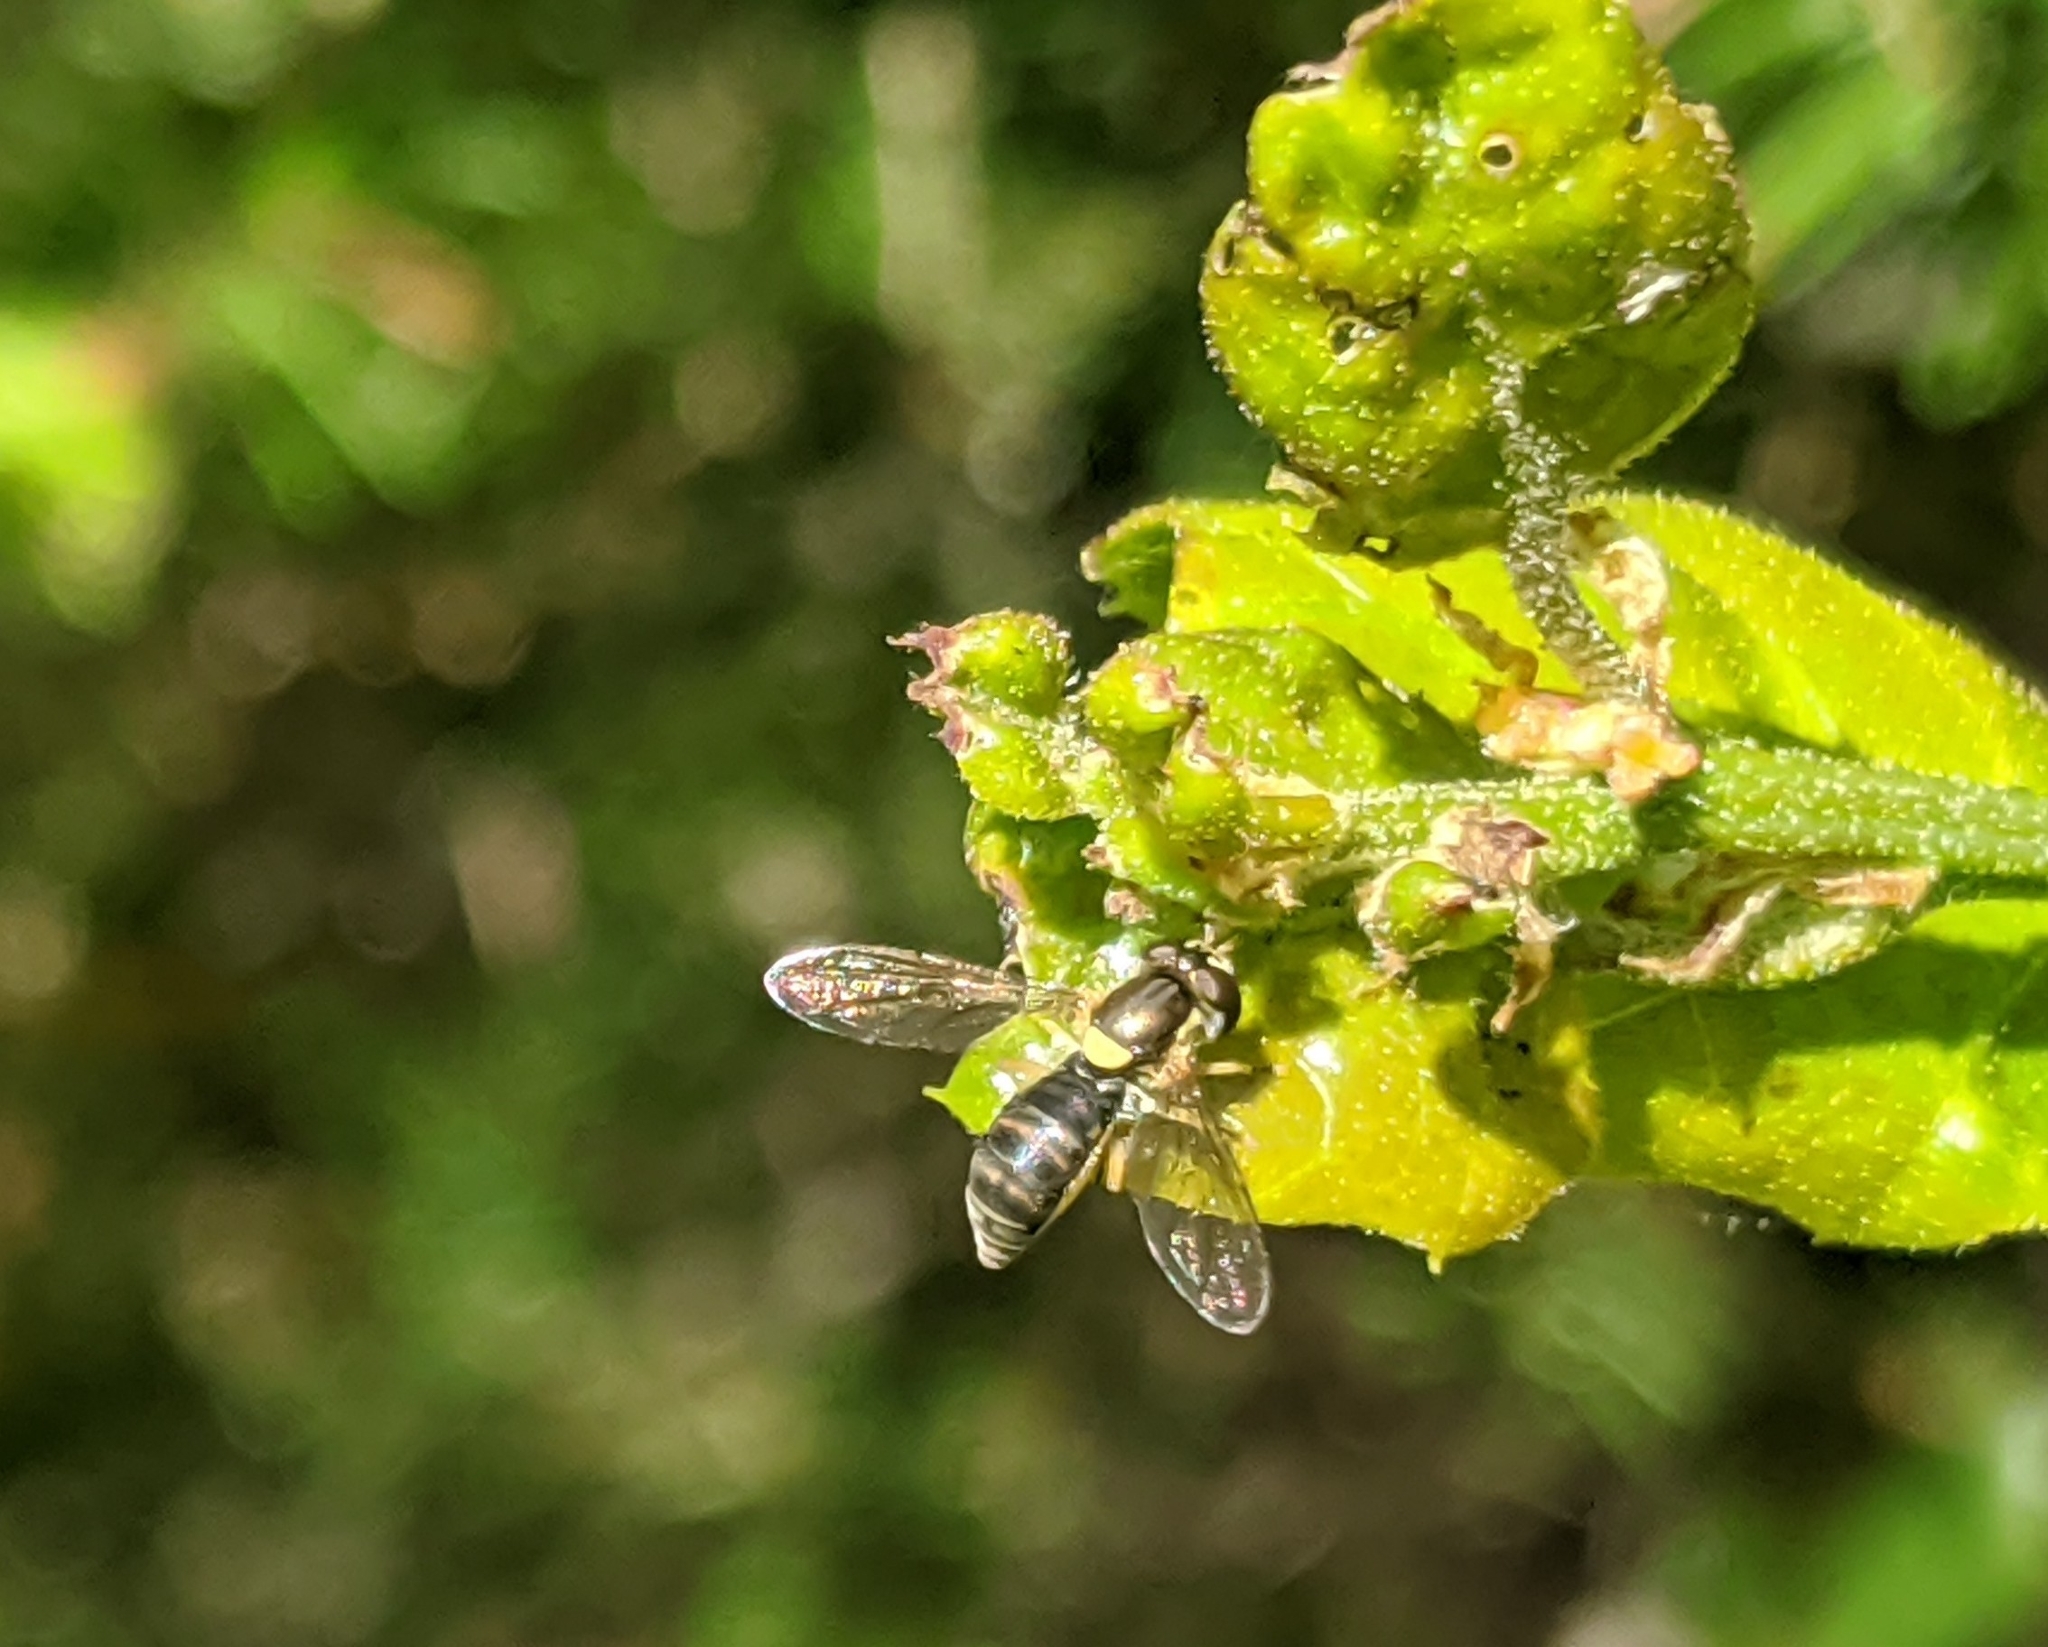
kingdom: Animalia
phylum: Arthropoda
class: Insecta
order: Diptera
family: Syrphidae
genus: Sphaerophoria
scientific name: Sphaerophoria sulphuripes
